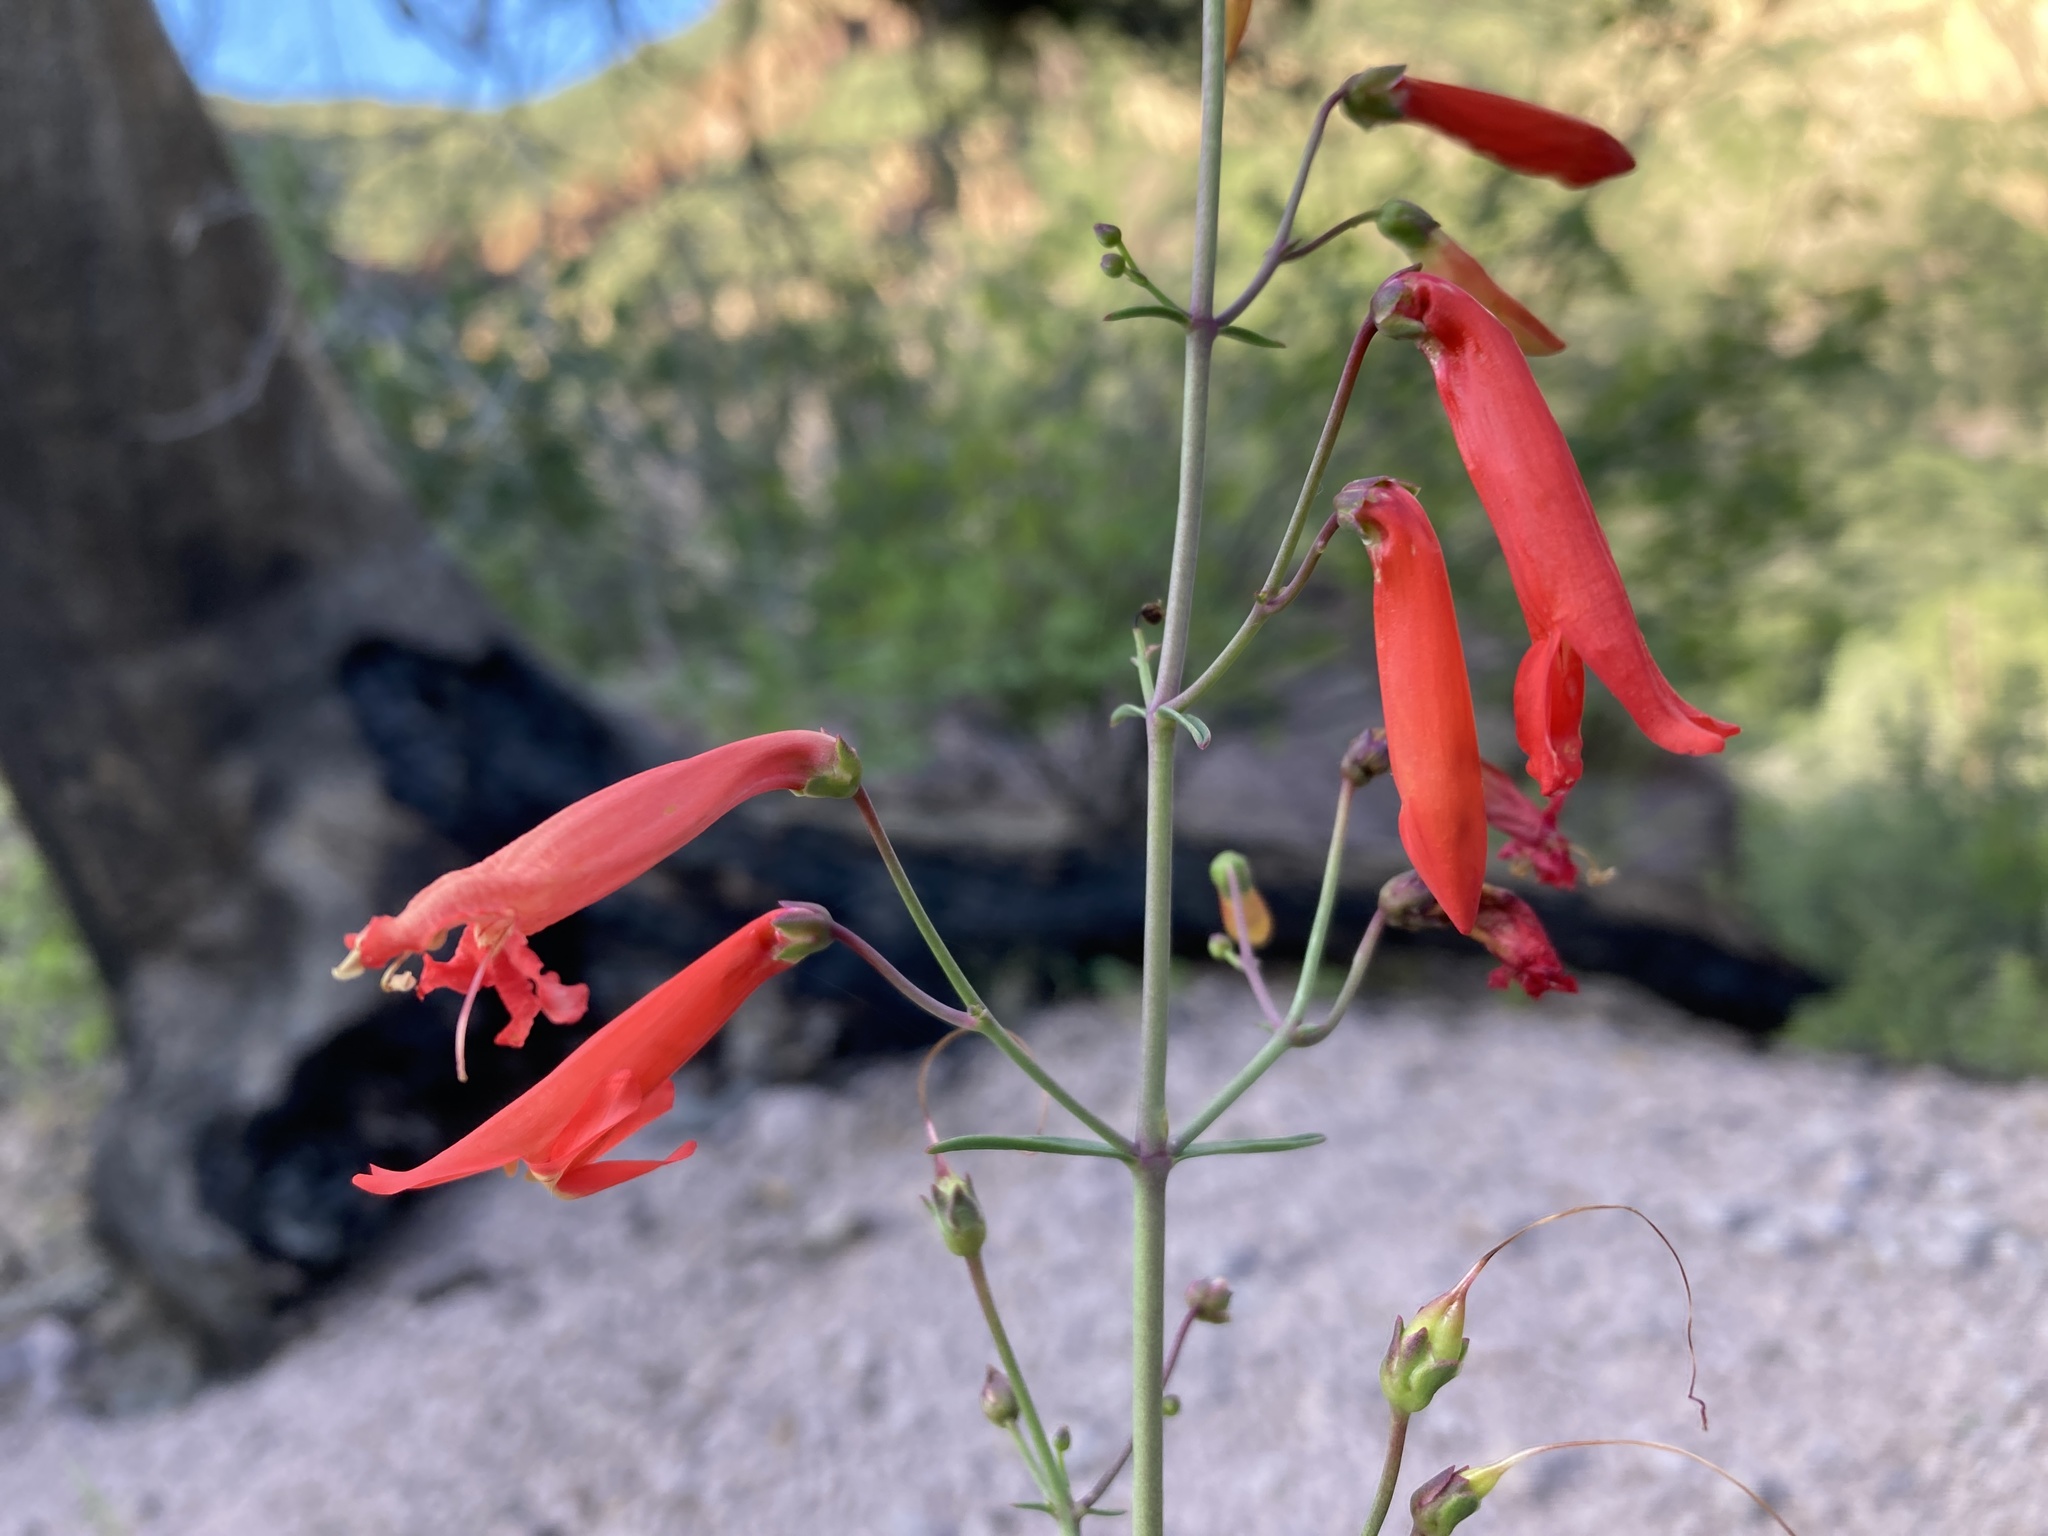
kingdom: Plantae
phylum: Tracheophyta
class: Magnoliopsida
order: Lamiales
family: Plantaginaceae
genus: Penstemon
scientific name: Penstemon barbatus
